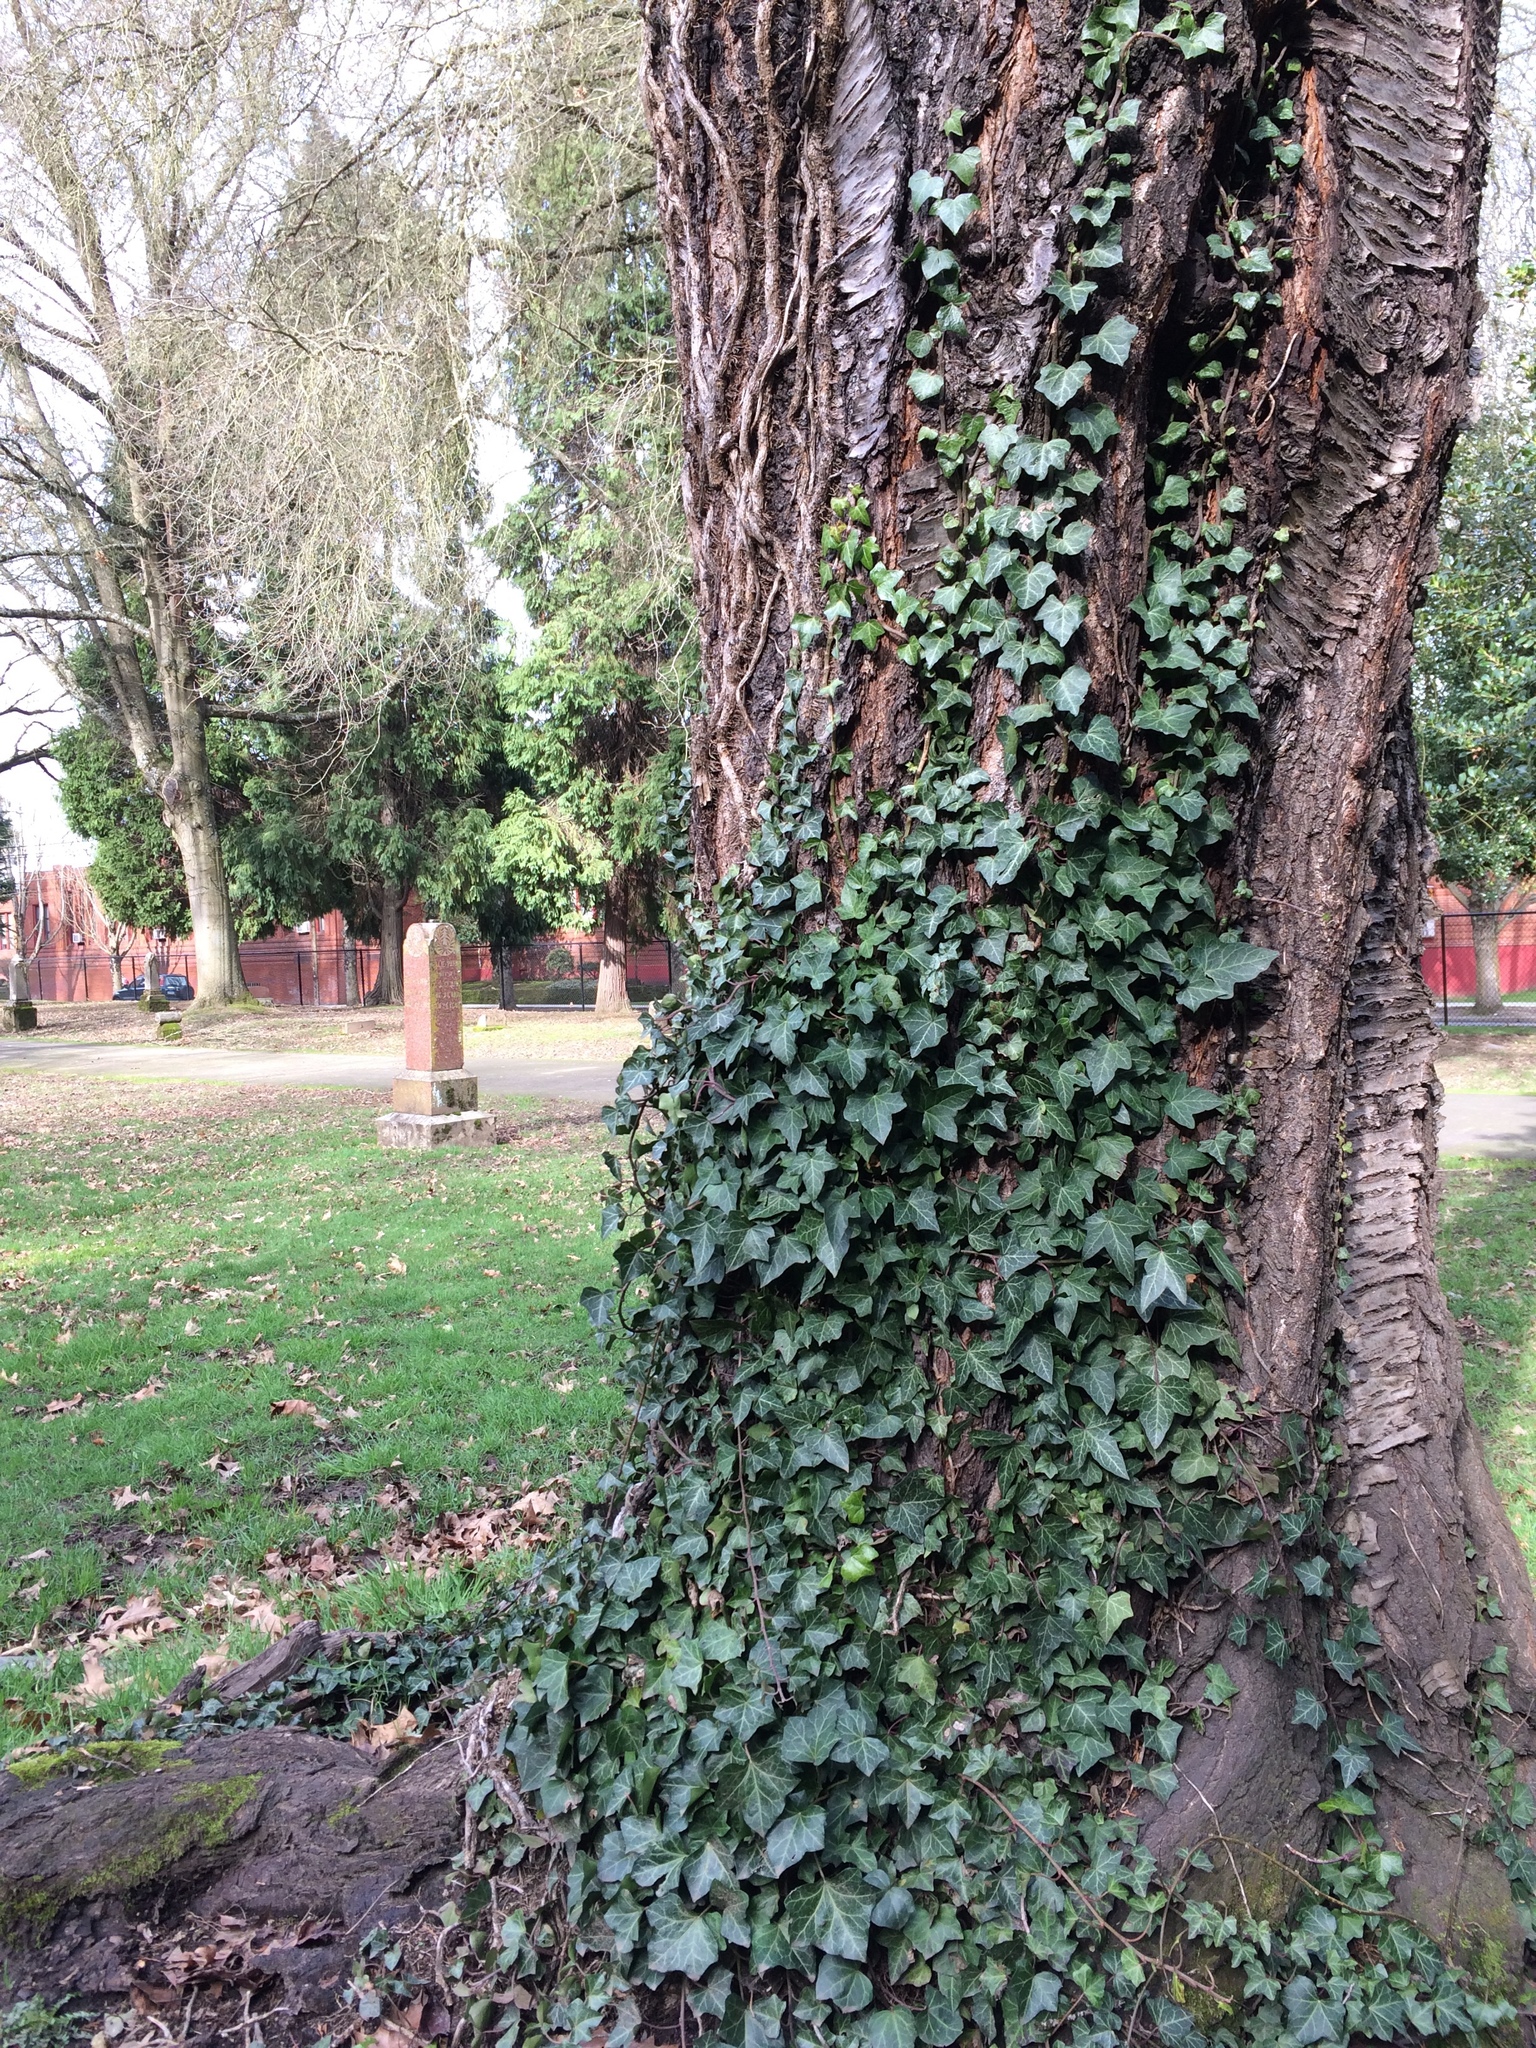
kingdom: Plantae
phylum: Tracheophyta
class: Magnoliopsida
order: Apiales
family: Araliaceae
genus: Hedera
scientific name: Hedera helix
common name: Ivy
